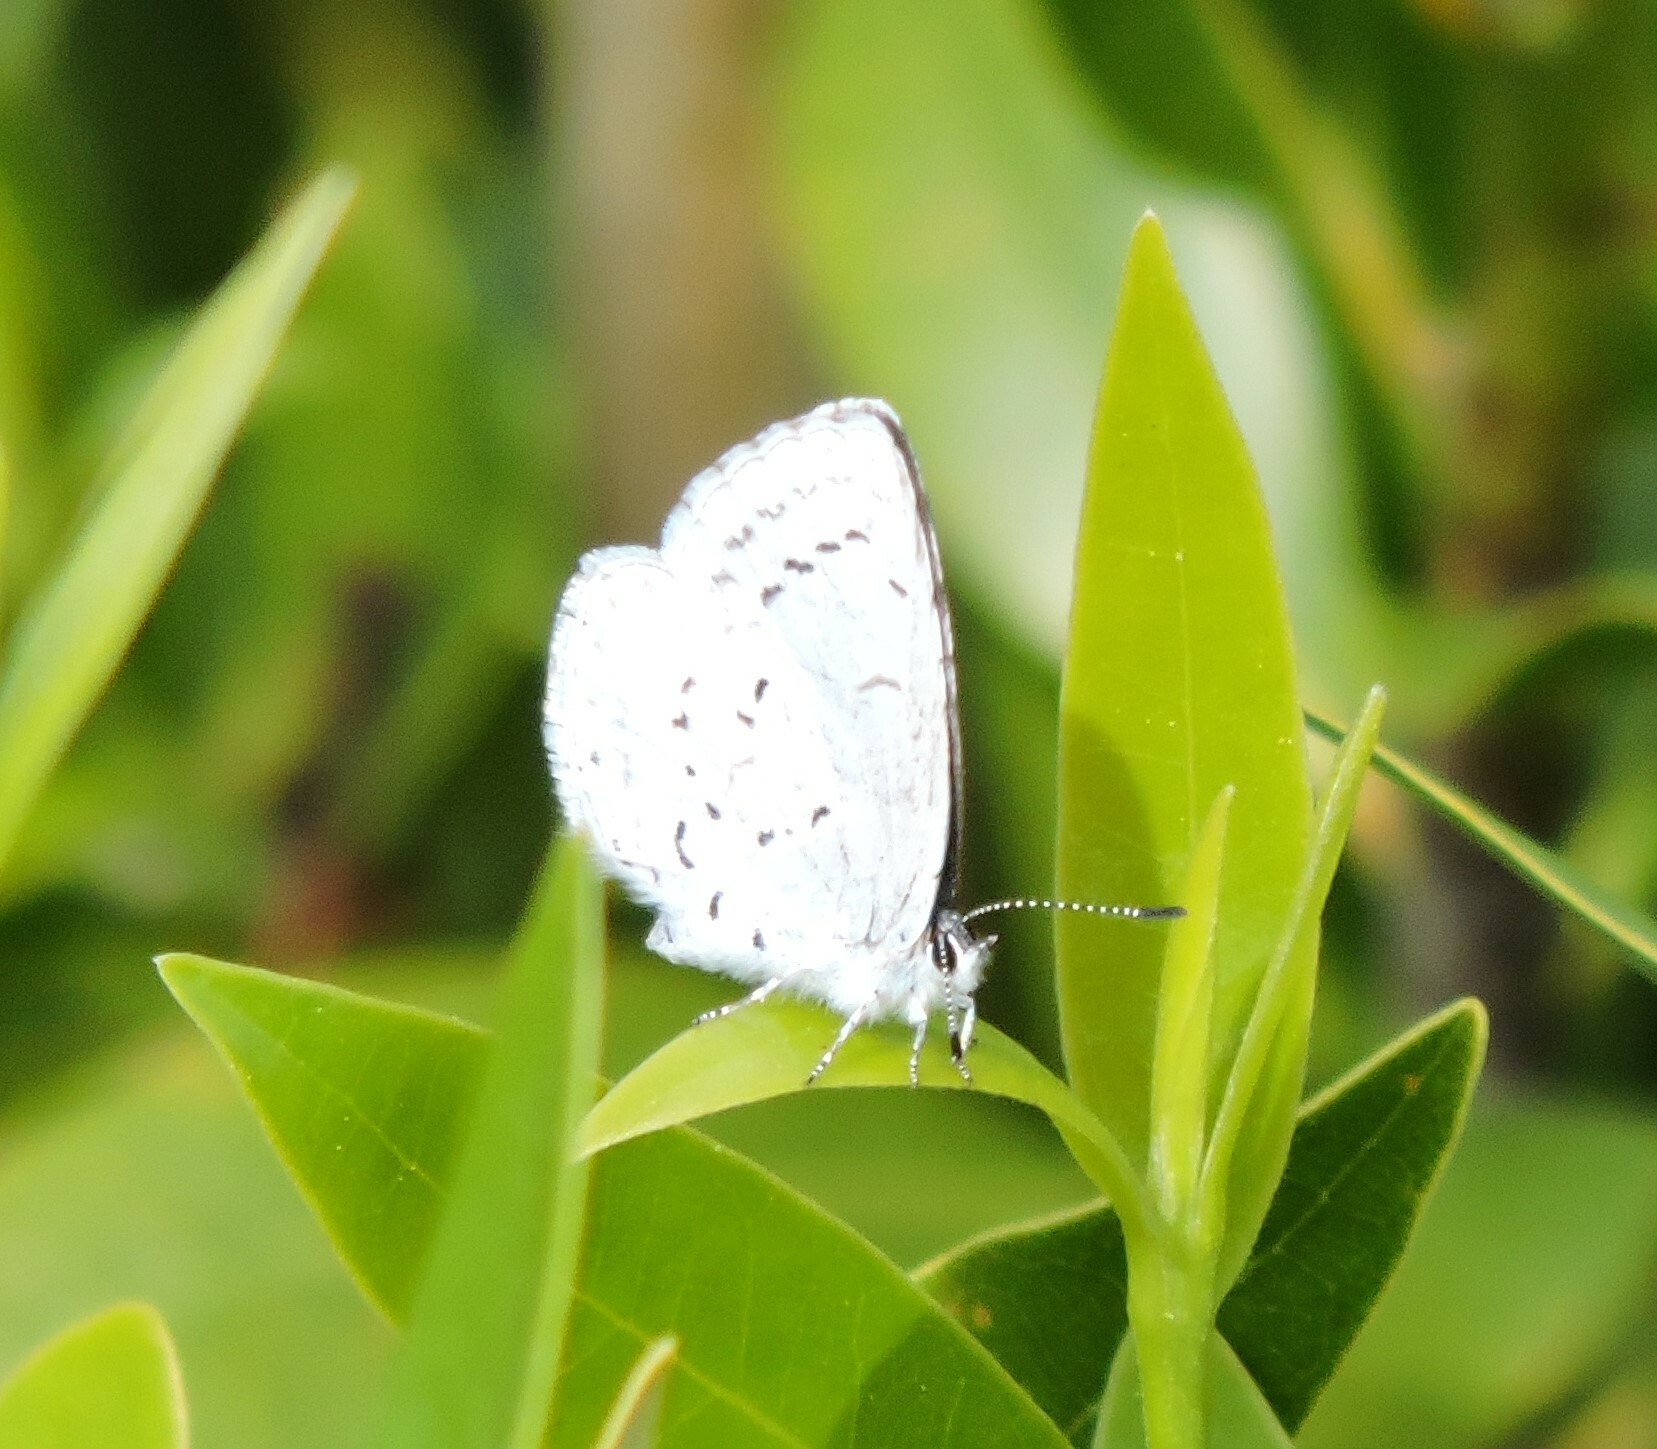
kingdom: Animalia
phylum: Arthropoda
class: Insecta
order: Lepidoptera
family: Lycaenidae
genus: Celastrina
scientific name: Celastrina ladon
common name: Spring azure
